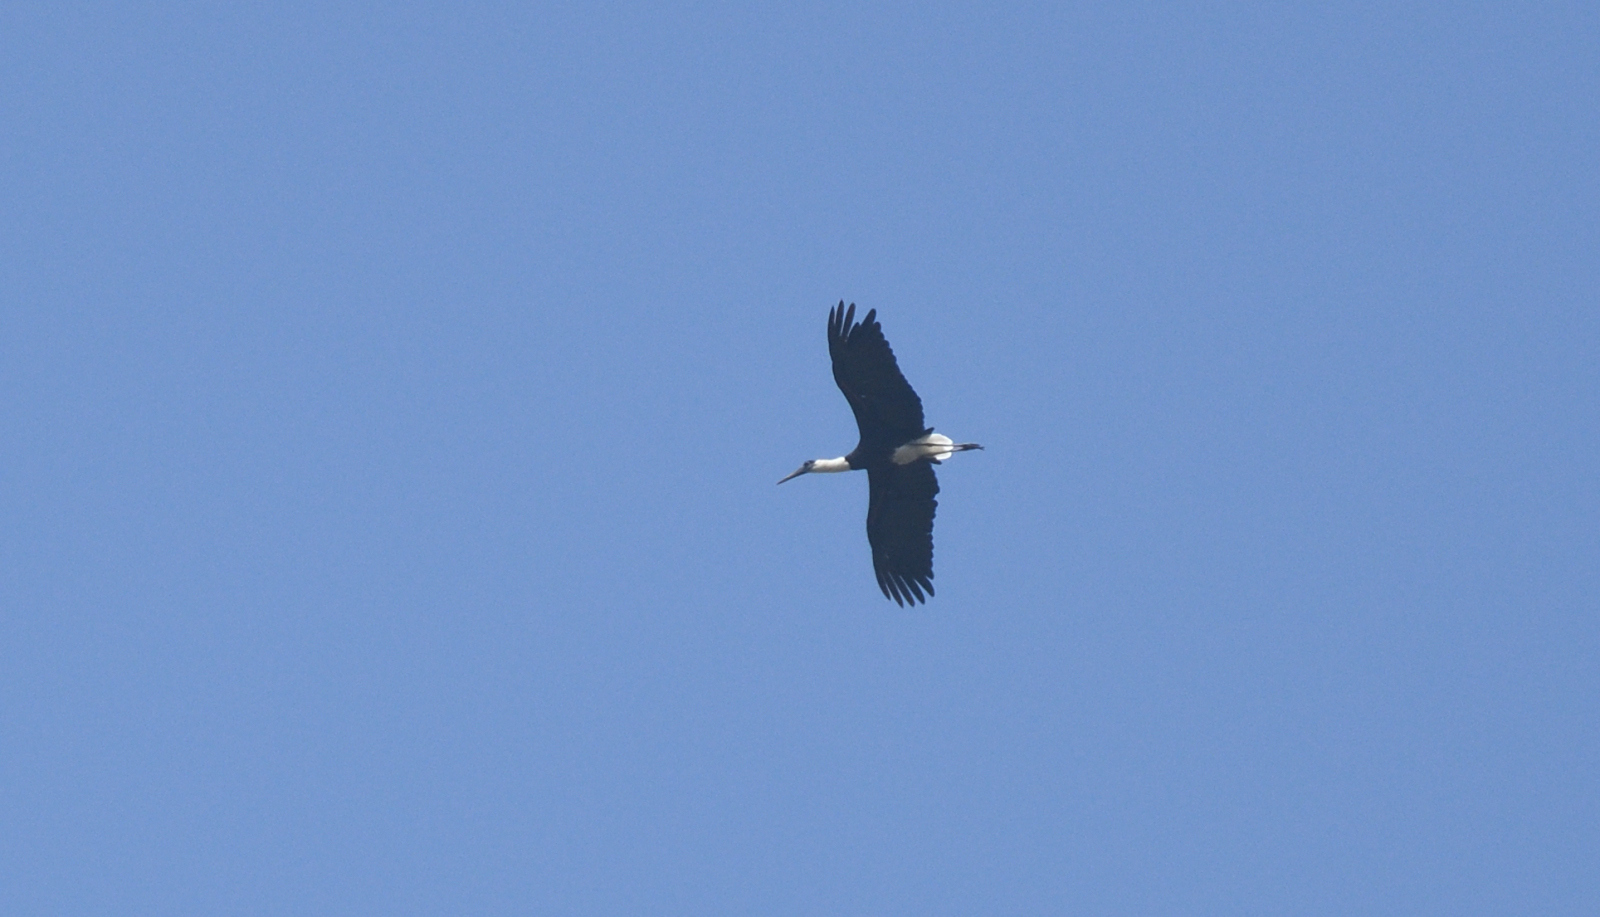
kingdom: Animalia
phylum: Chordata
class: Aves
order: Ciconiiformes
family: Ciconiidae
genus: Ciconia
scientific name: Ciconia episcopus
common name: Woolly-necked stork
